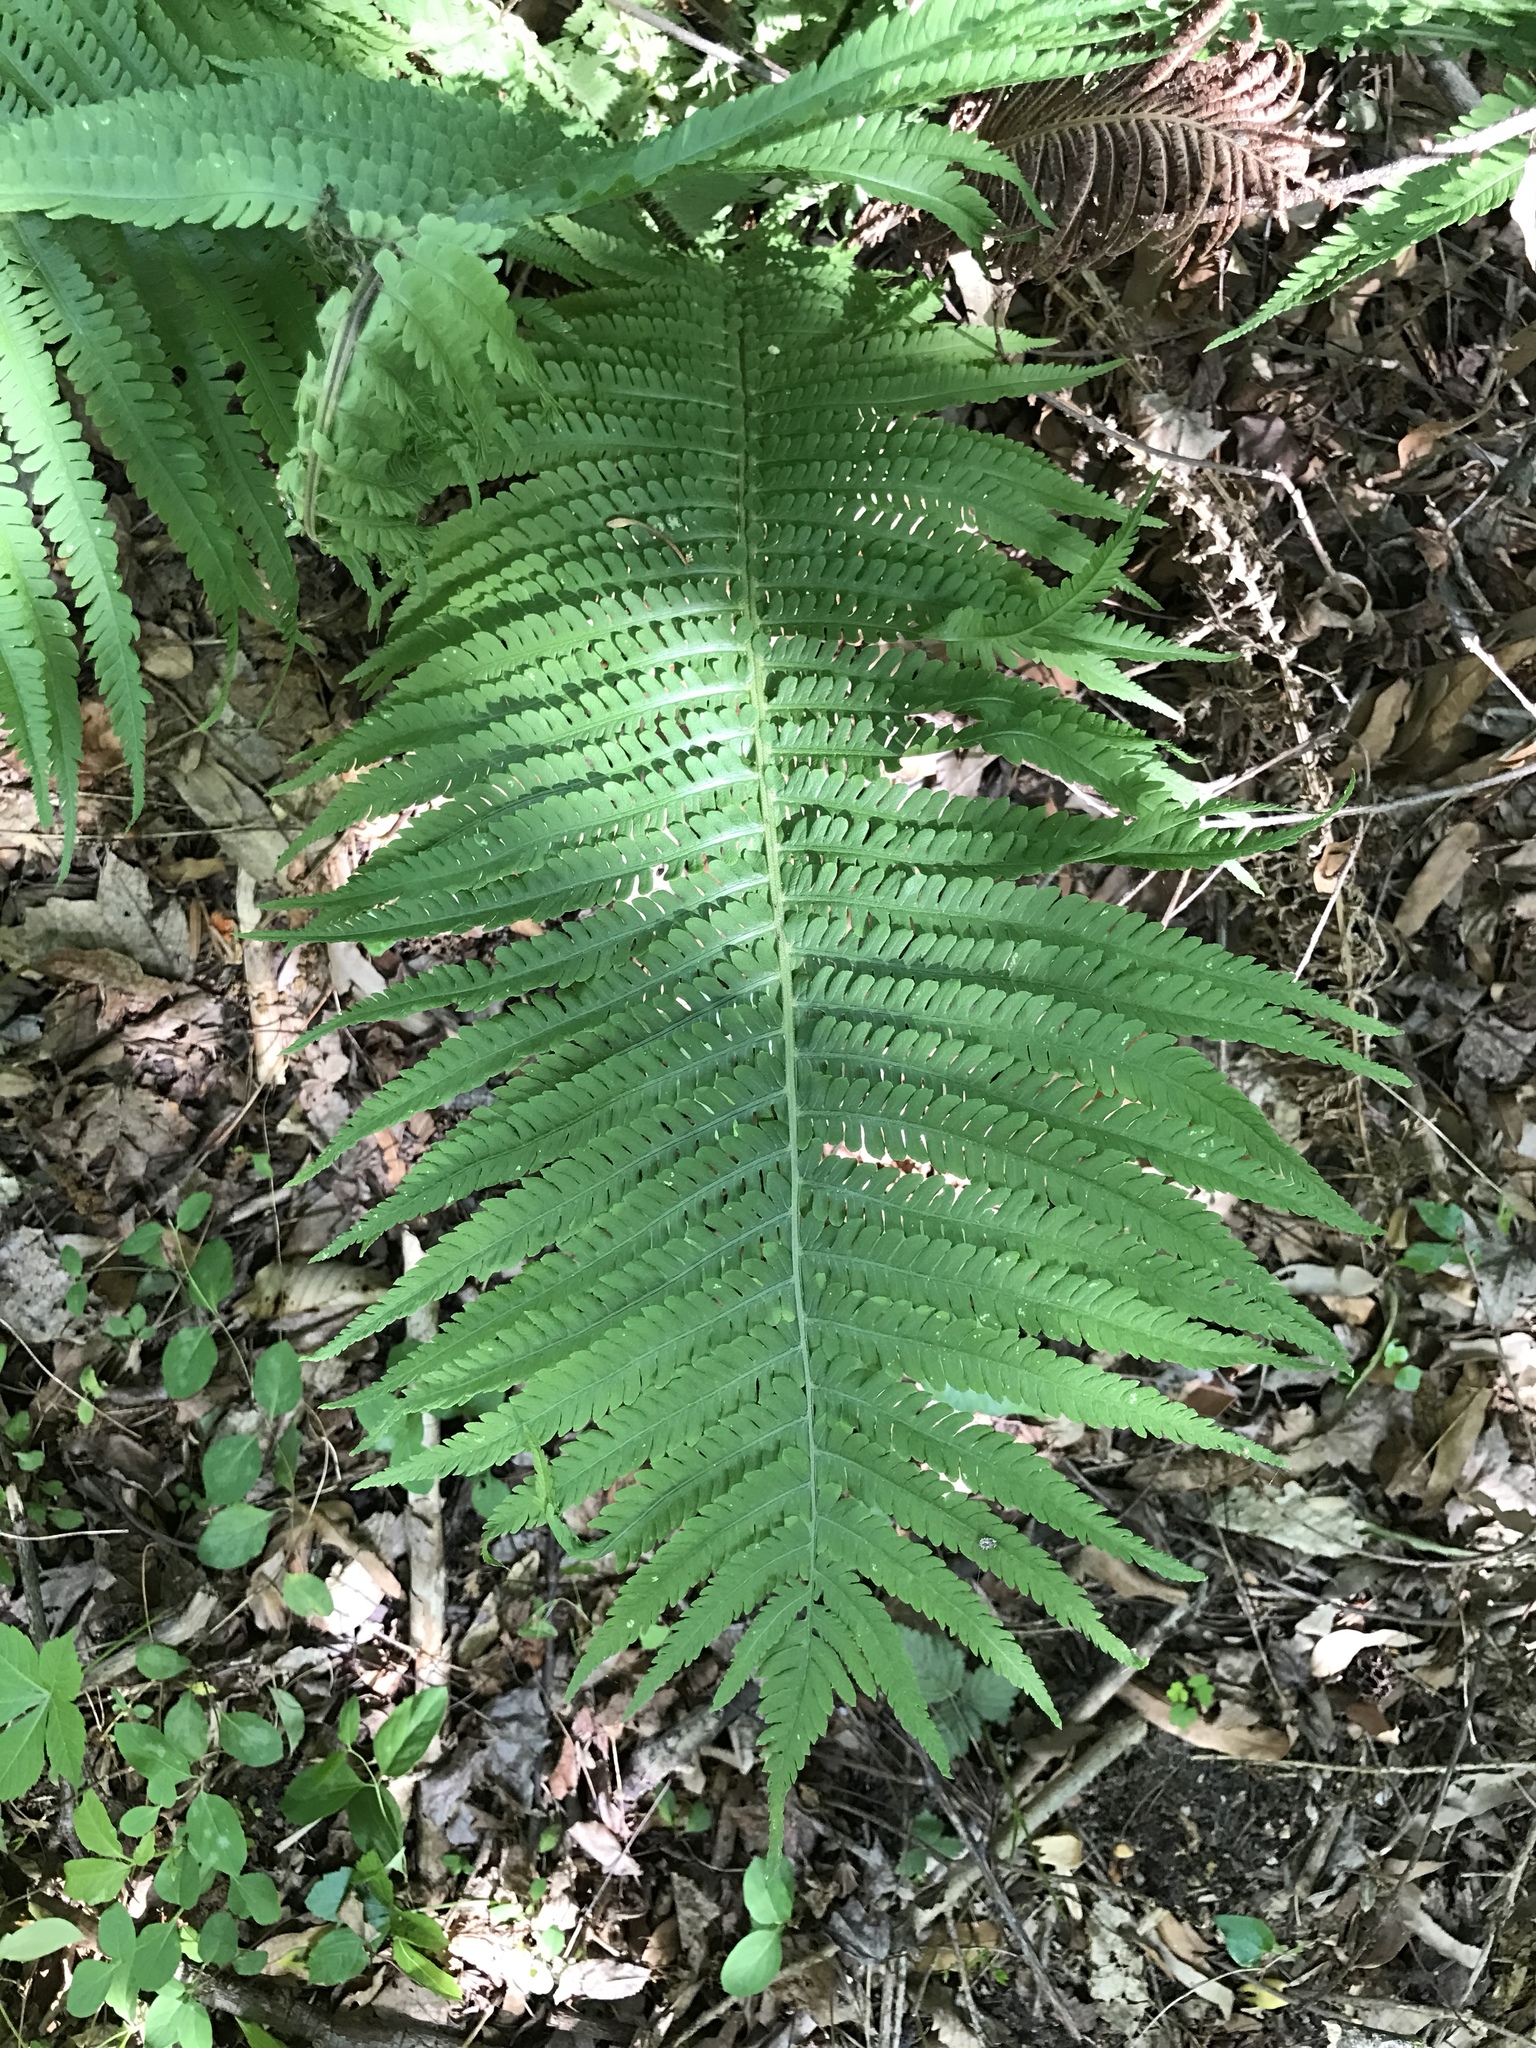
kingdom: Plantae
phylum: Tracheophyta
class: Polypodiopsida
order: Polypodiales
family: Onocleaceae
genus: Matteuccia
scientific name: Matteuccia struthiopteris
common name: Ostrich fern
